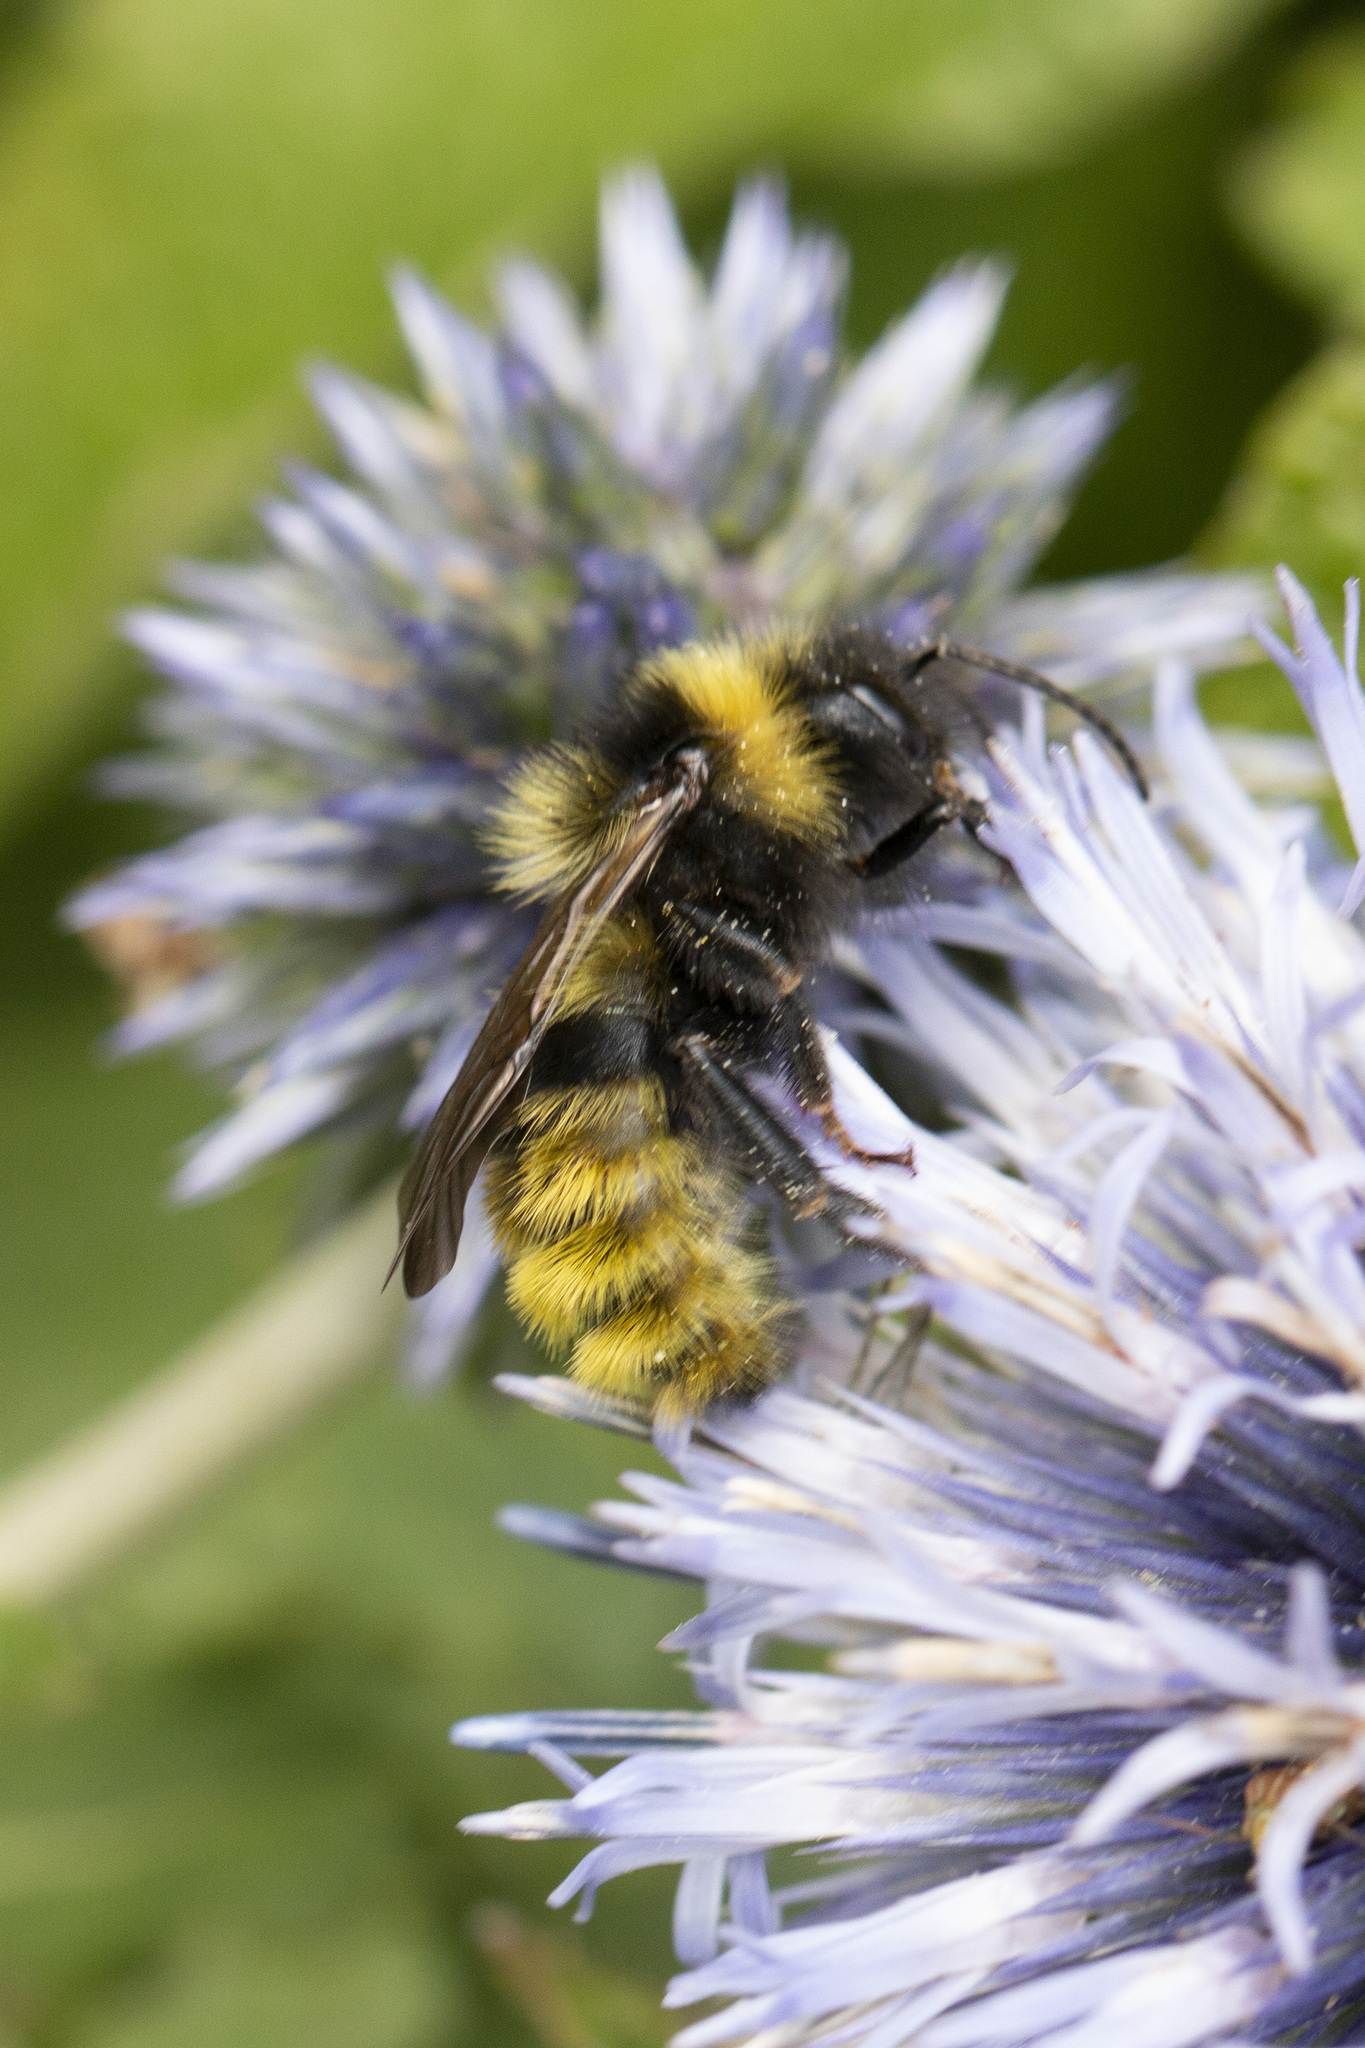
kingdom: Animalia
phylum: Arthropoda
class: Insecta
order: Hymenoptera
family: Apidae
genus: Bombus
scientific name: Bombus campestris
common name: Field cuckoo-bee
